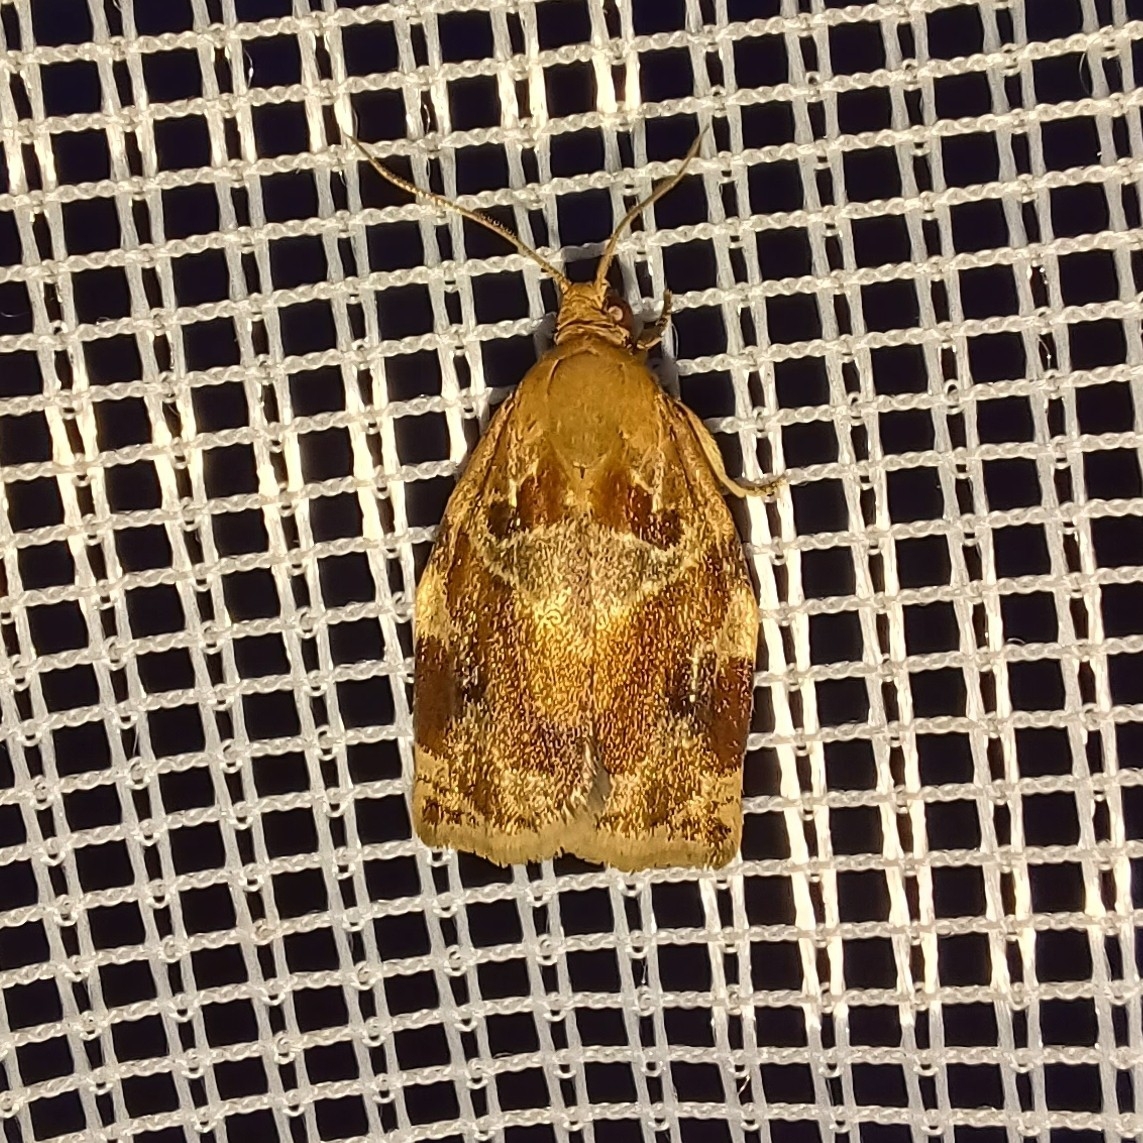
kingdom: Animalia
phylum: Arthropoda
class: Insecta
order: Lepidoptera
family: Tortricidae
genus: Archips
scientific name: Archips xylosteana
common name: Variegated golden tortrix
